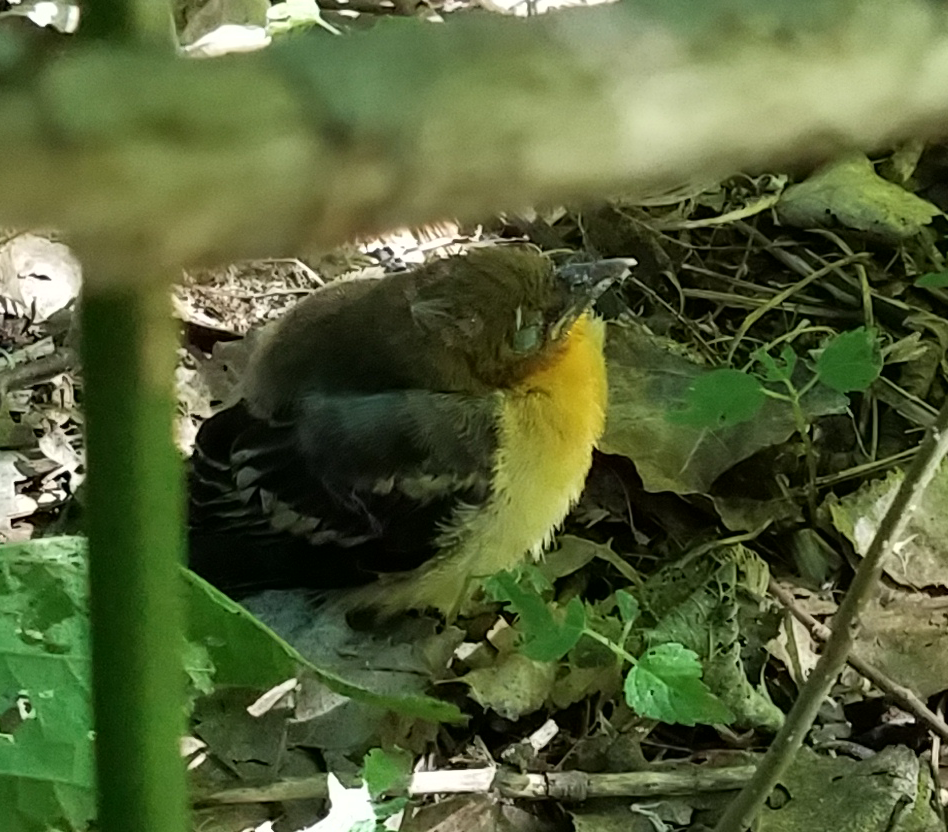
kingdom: Animalia
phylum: Chordata
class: Aves
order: Passeriformes
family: Icteridae
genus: Icterus
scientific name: Icterus galbula
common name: Baltimore oriole
